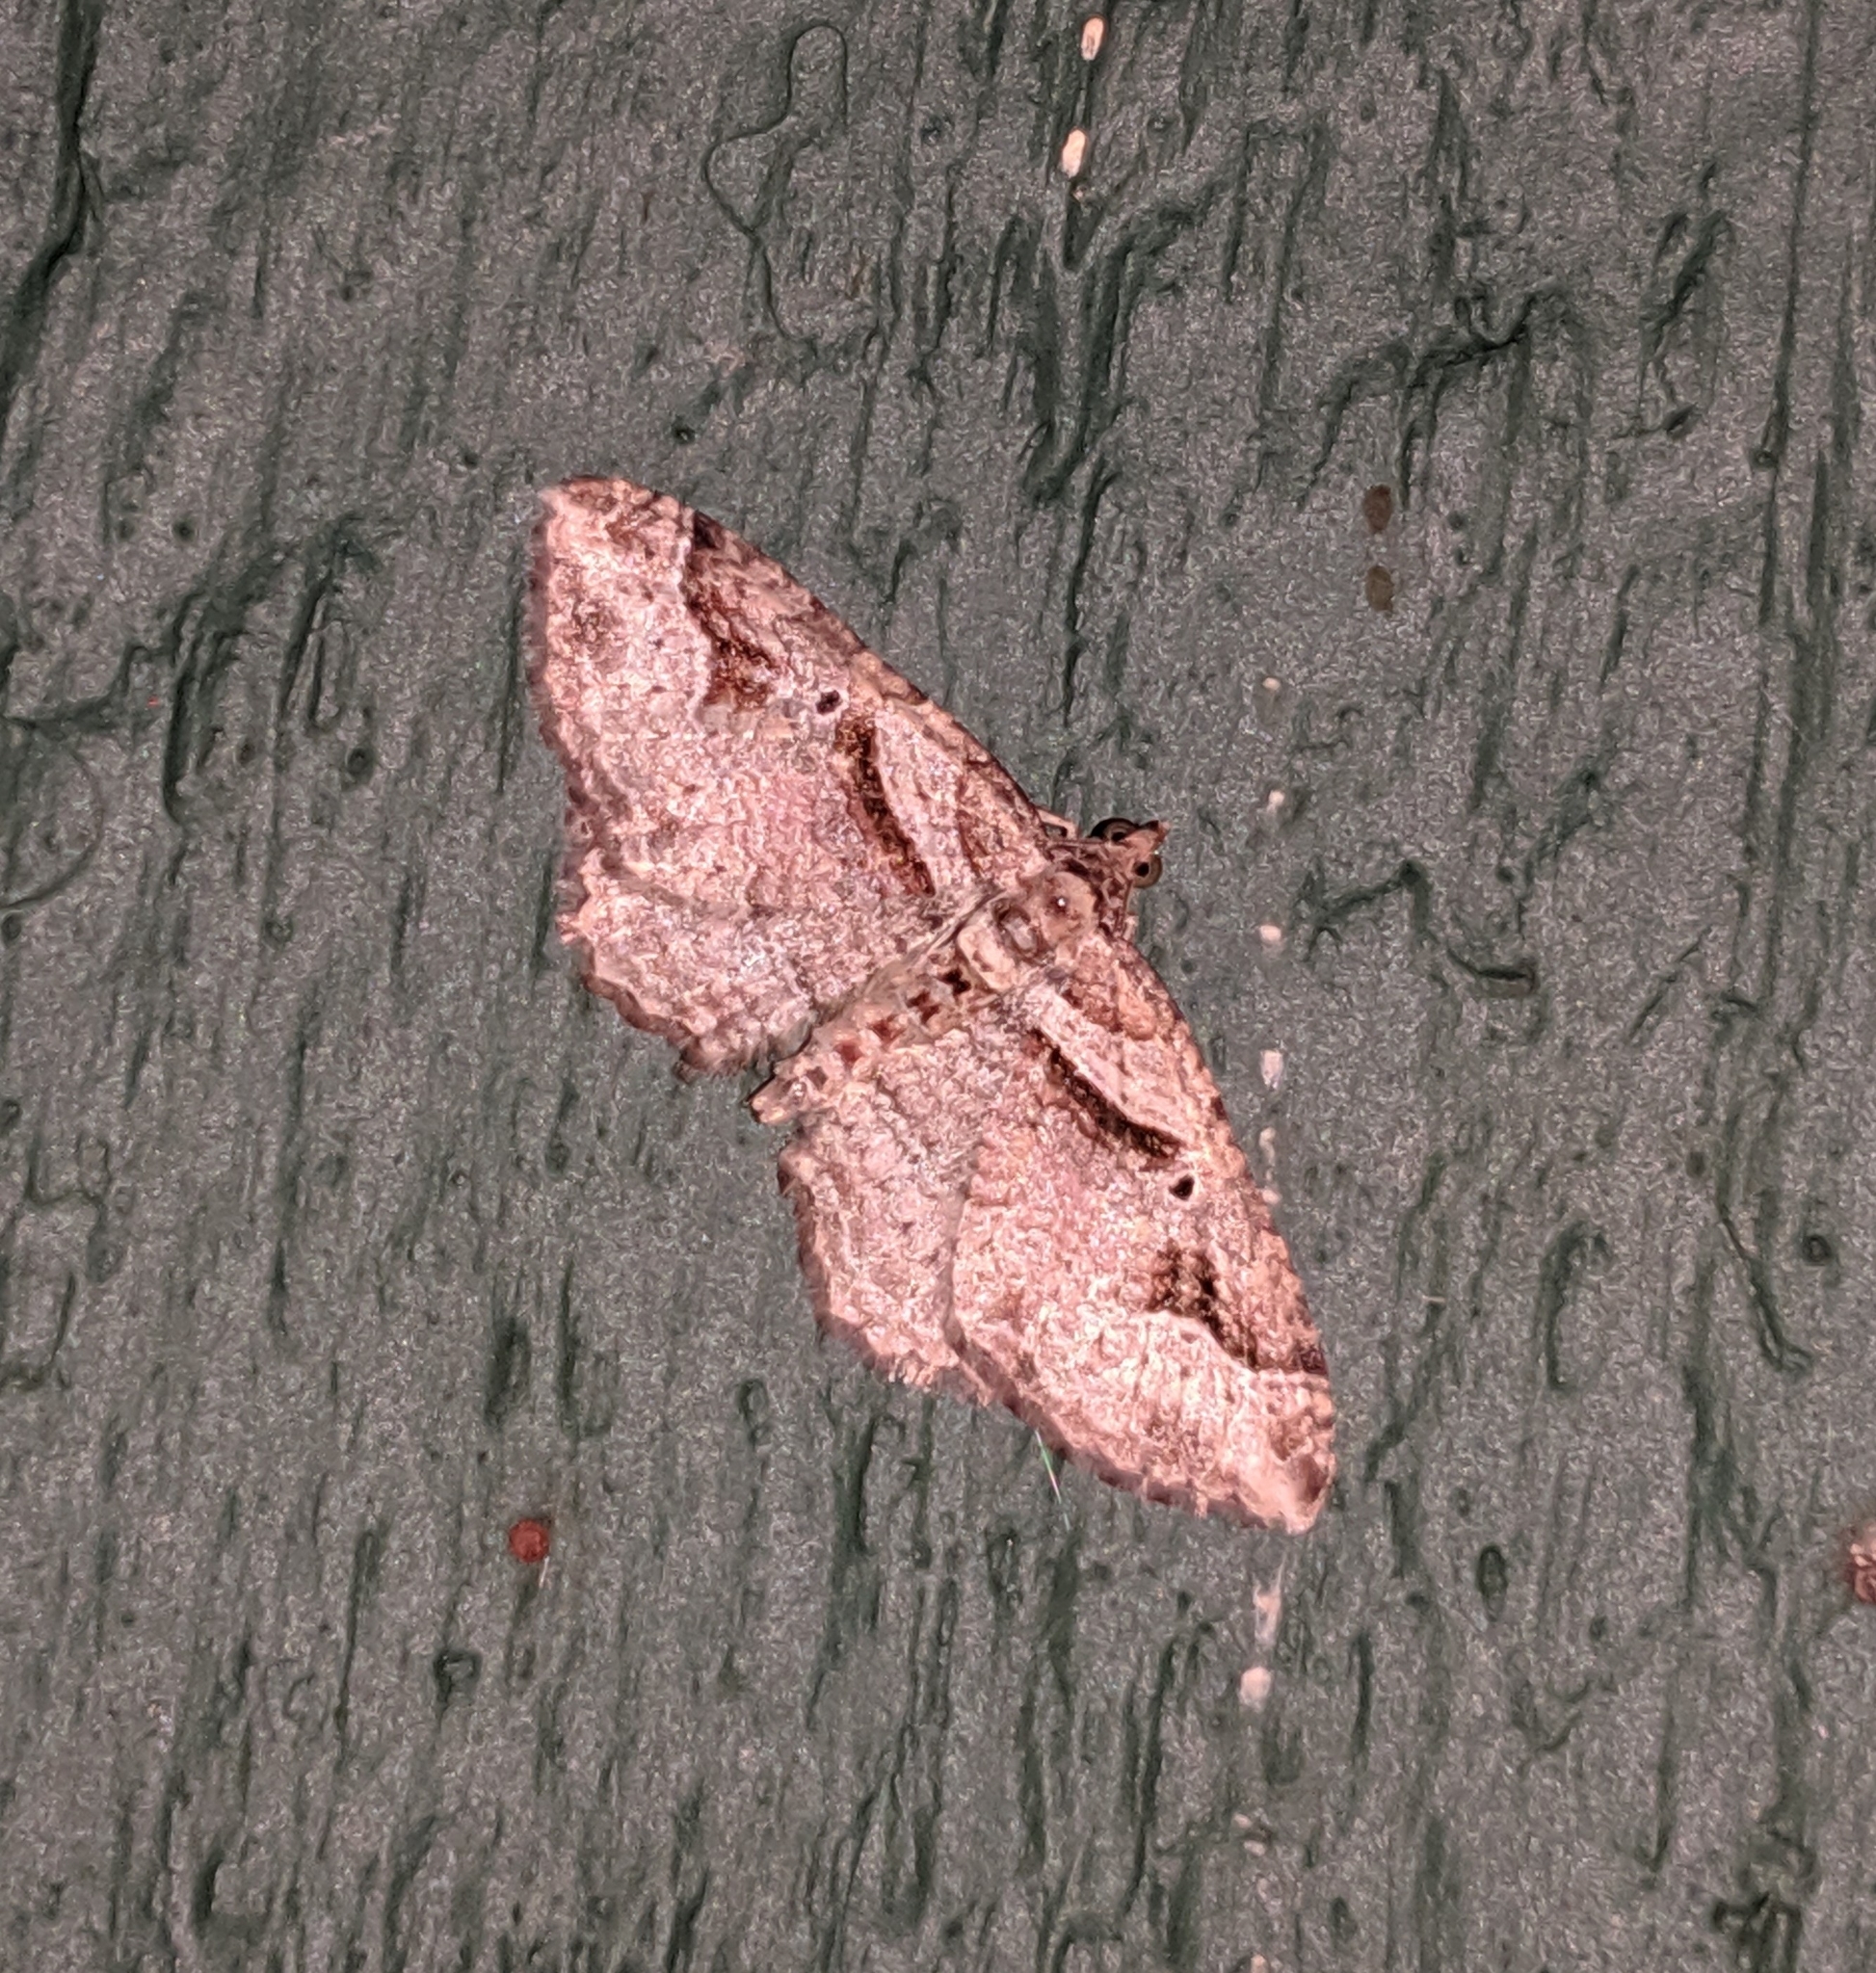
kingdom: Animalia
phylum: Arthropoda
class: Insecta
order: Lepidoptera
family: Geometridae
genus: Costaconvexa
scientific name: Costaconvexa centrostrigaria
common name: Bent-line carpet
